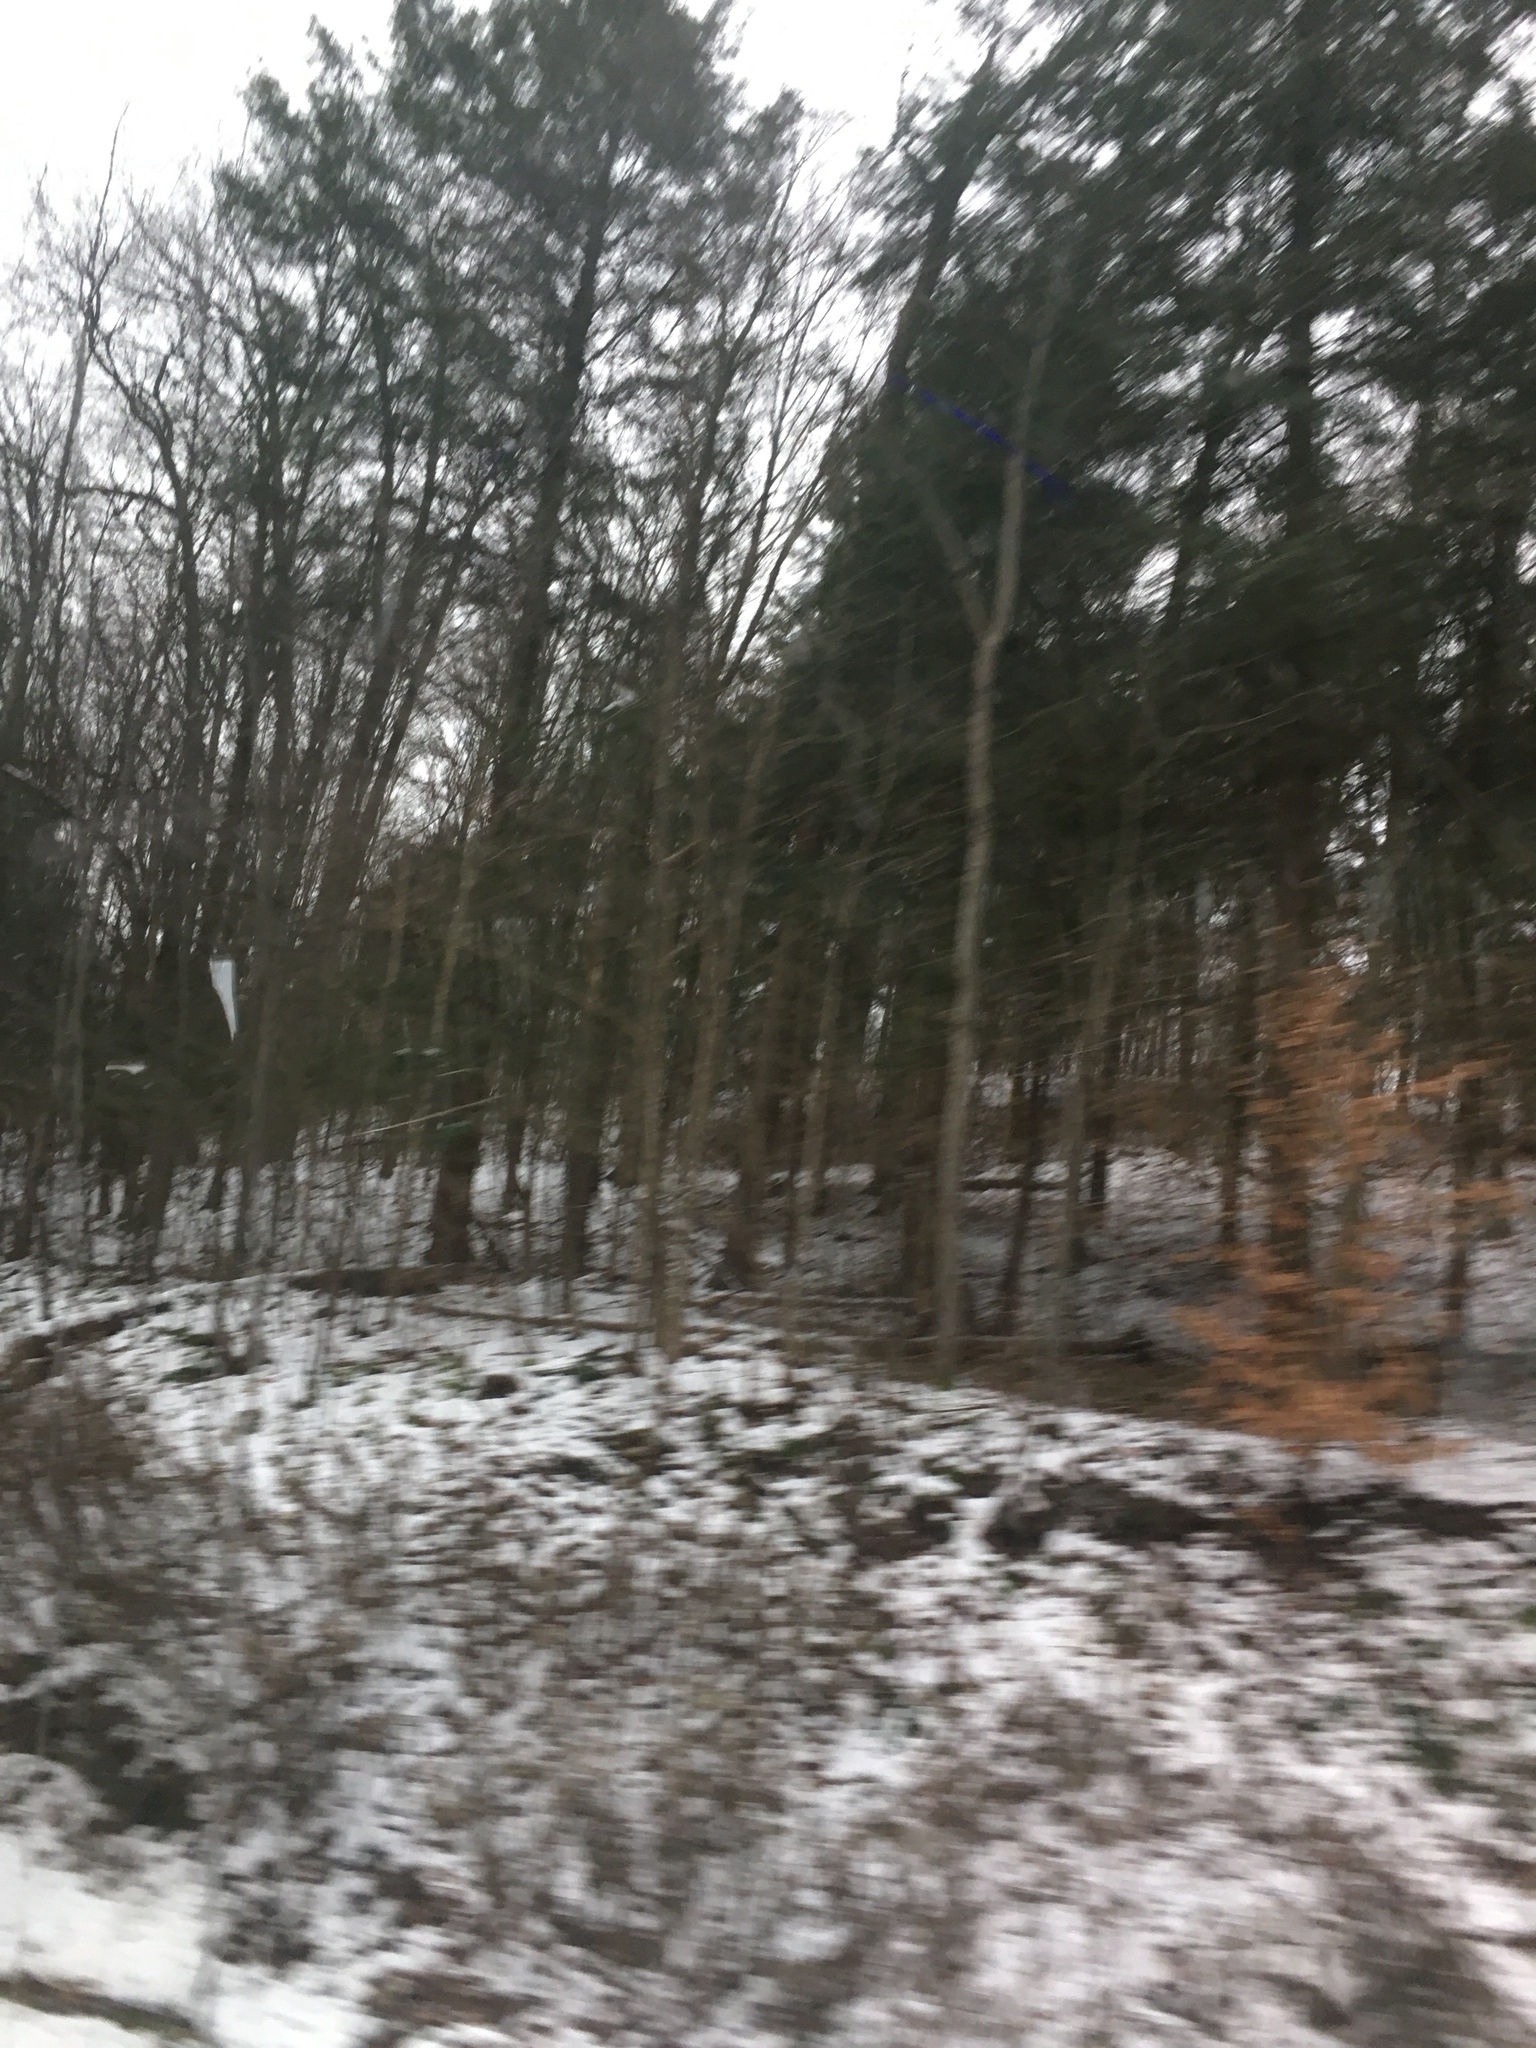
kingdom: Plantae
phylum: Tracheophyta
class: Magnoliopsida
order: Fagales
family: Fagaceae
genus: Fagus
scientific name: Fagus grandifolia
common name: American beech
